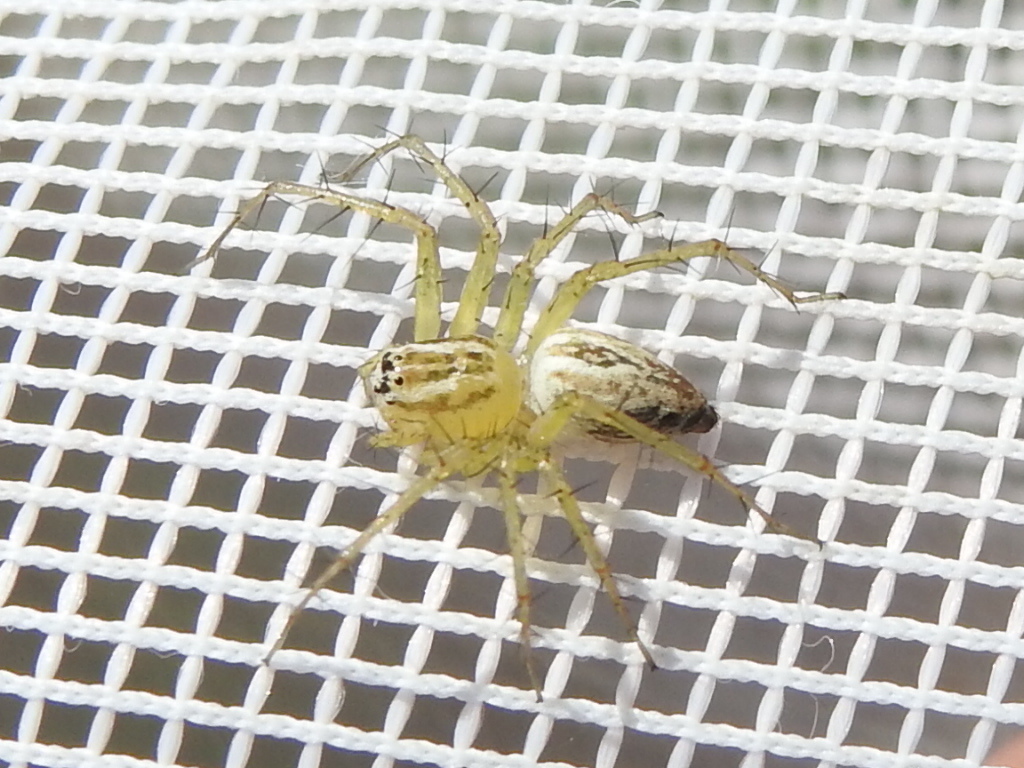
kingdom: Animalia
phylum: Arthropoda
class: Arachnida
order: Araneae
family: Oxyopidae
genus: Oxyopes
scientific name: Oxyopes salticus
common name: Lynx spiders
